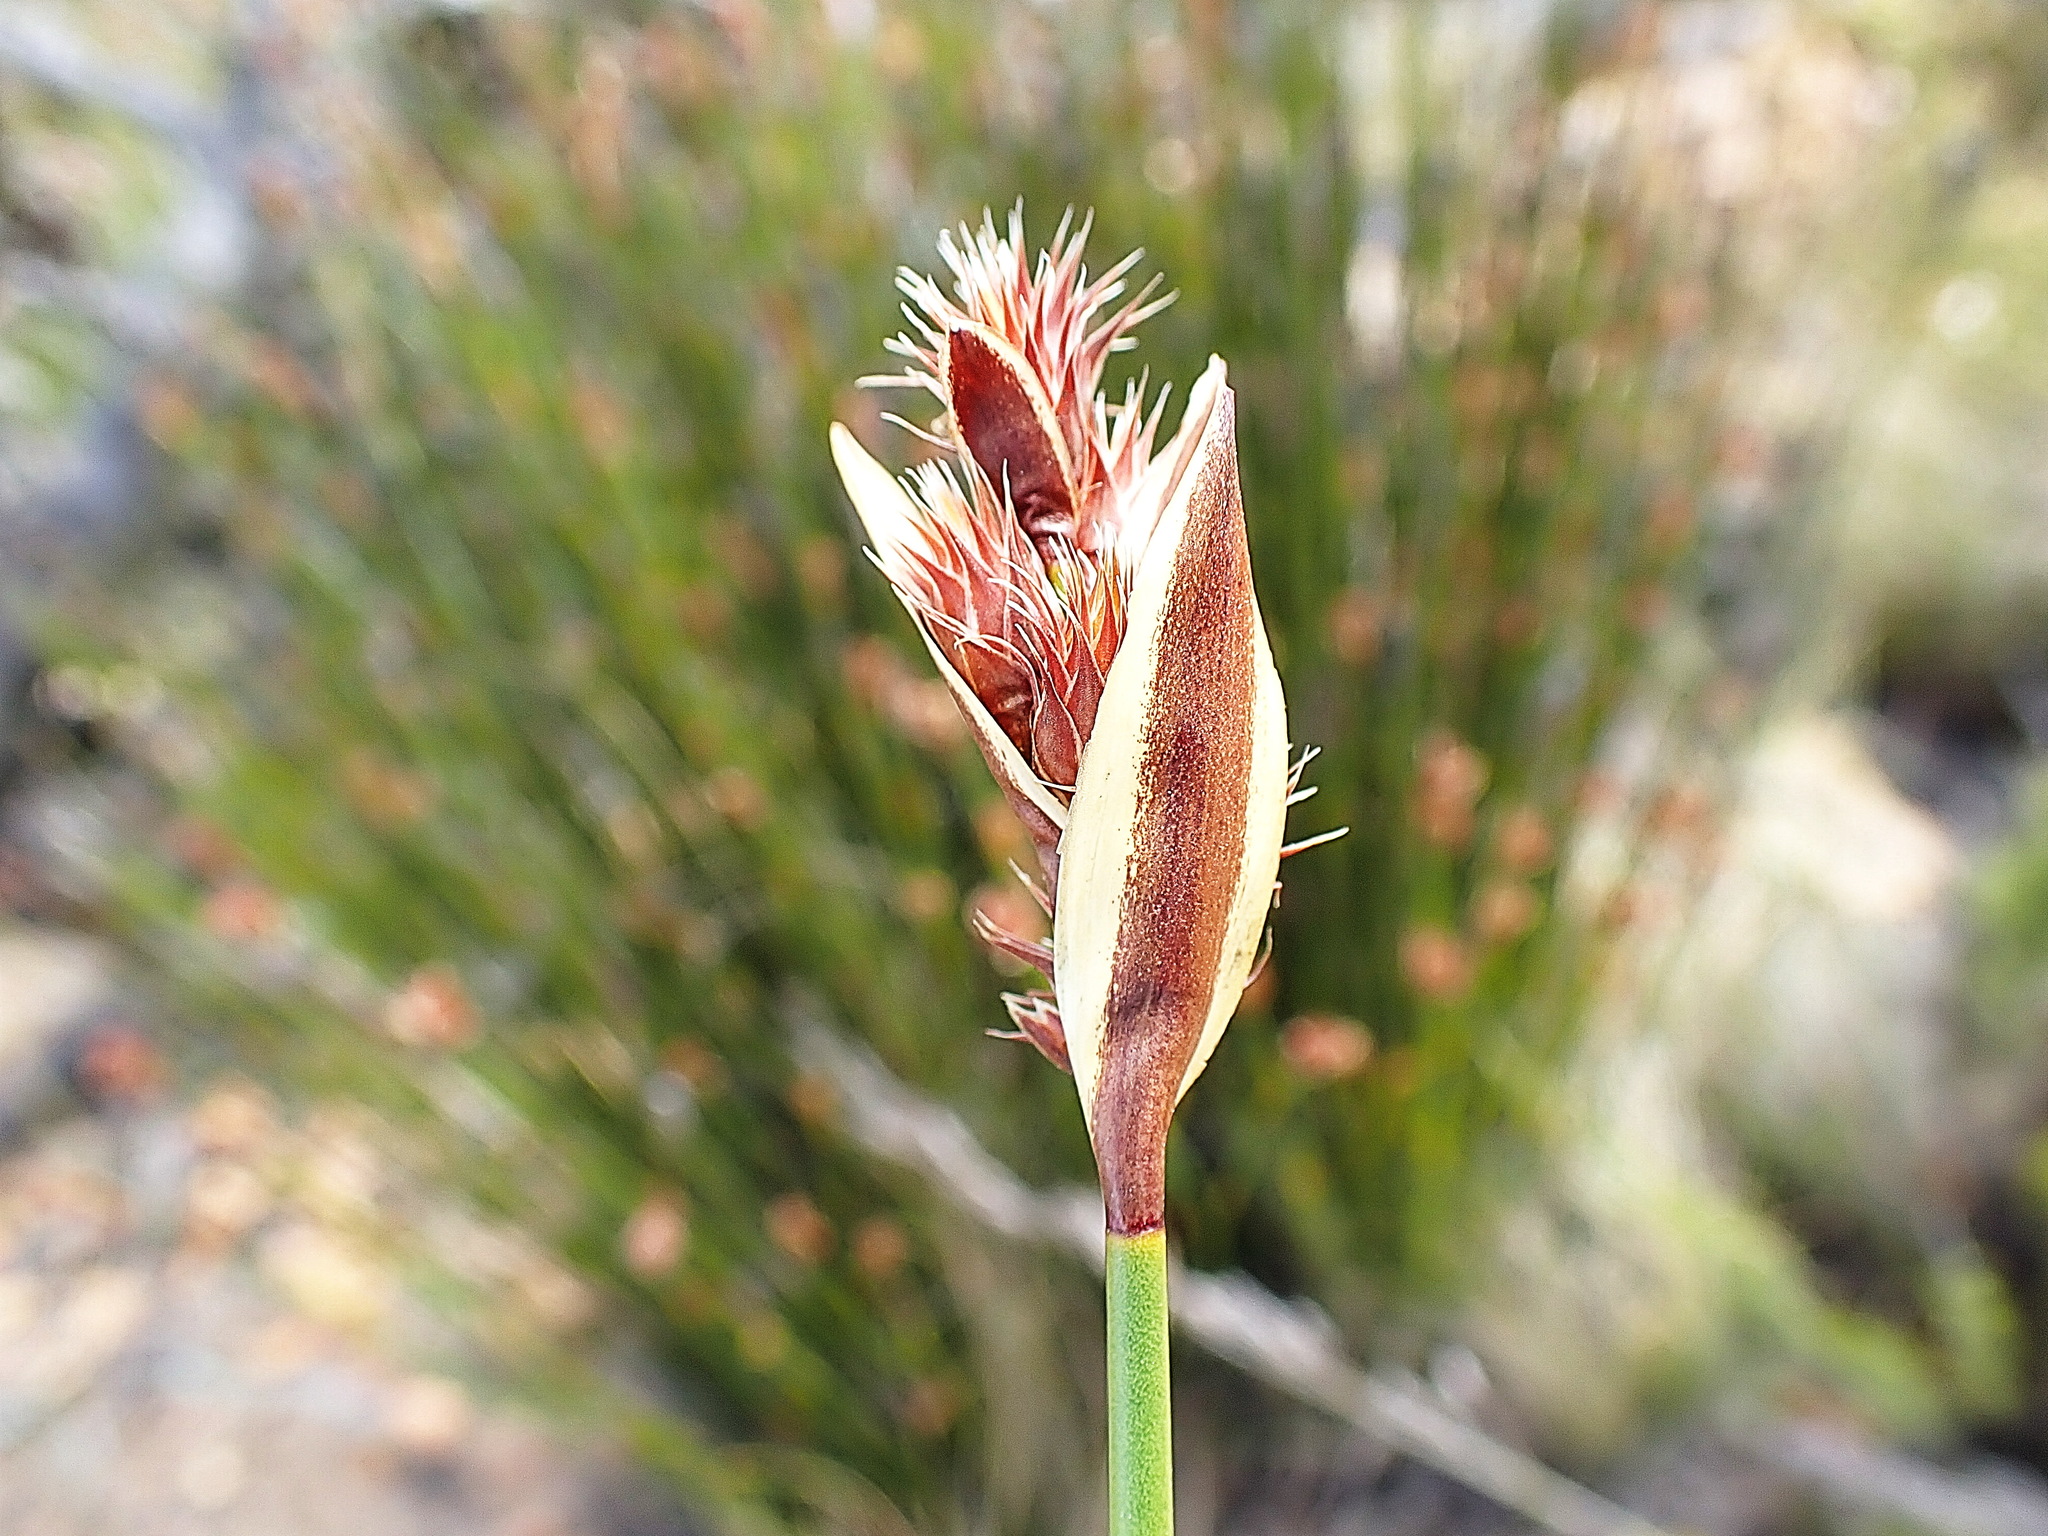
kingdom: Plantae
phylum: Tracheophyta
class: Liliopsida
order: Poales
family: Restionaceae
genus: Hypodiscus
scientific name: Hypodiscus aristatus
